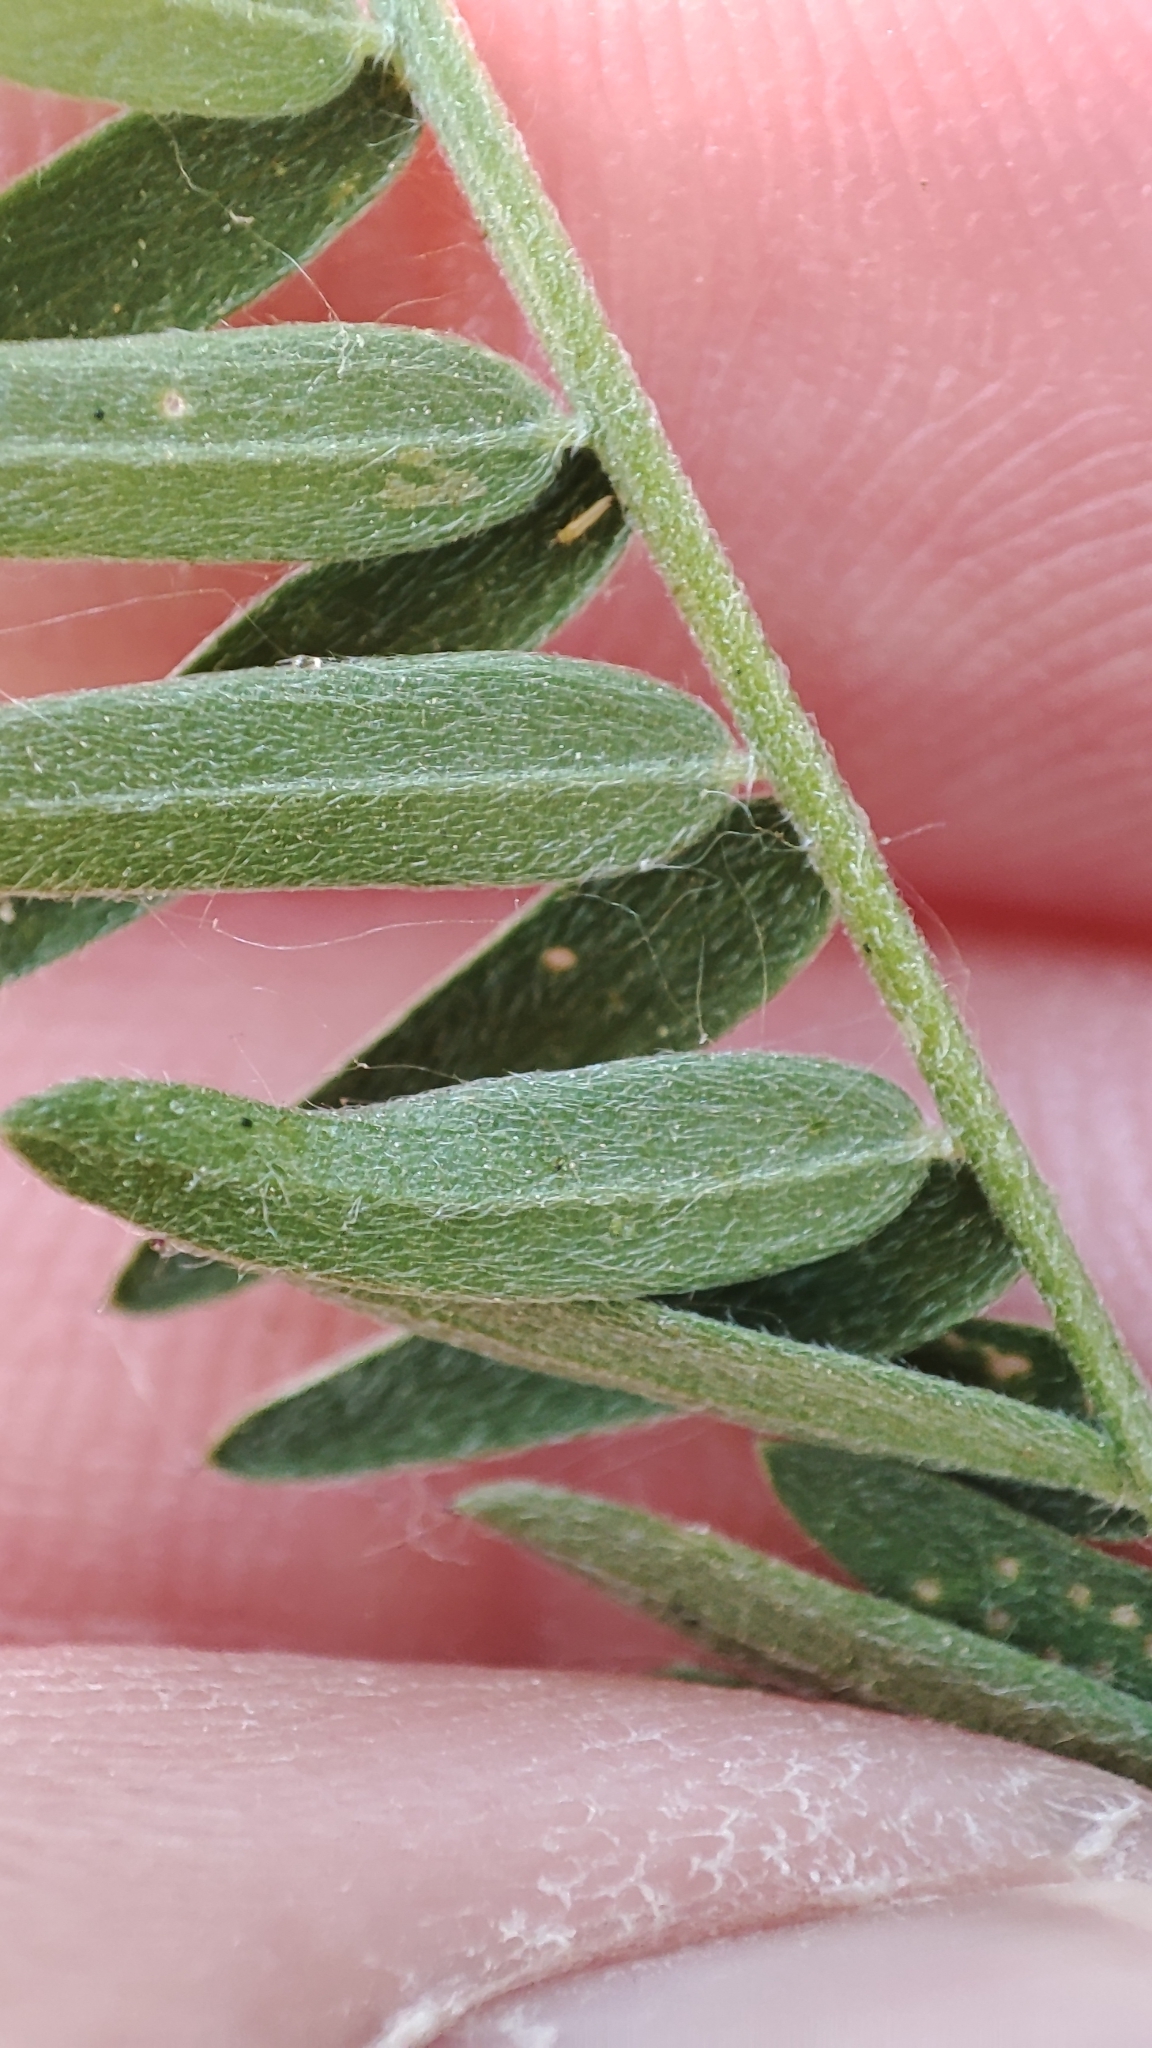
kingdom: Plantae
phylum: Tracheophyta
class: Magnoliopsida
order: Fabales
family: Fabaceae
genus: Vicia
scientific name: Vicia cracca
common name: Bird vetch
